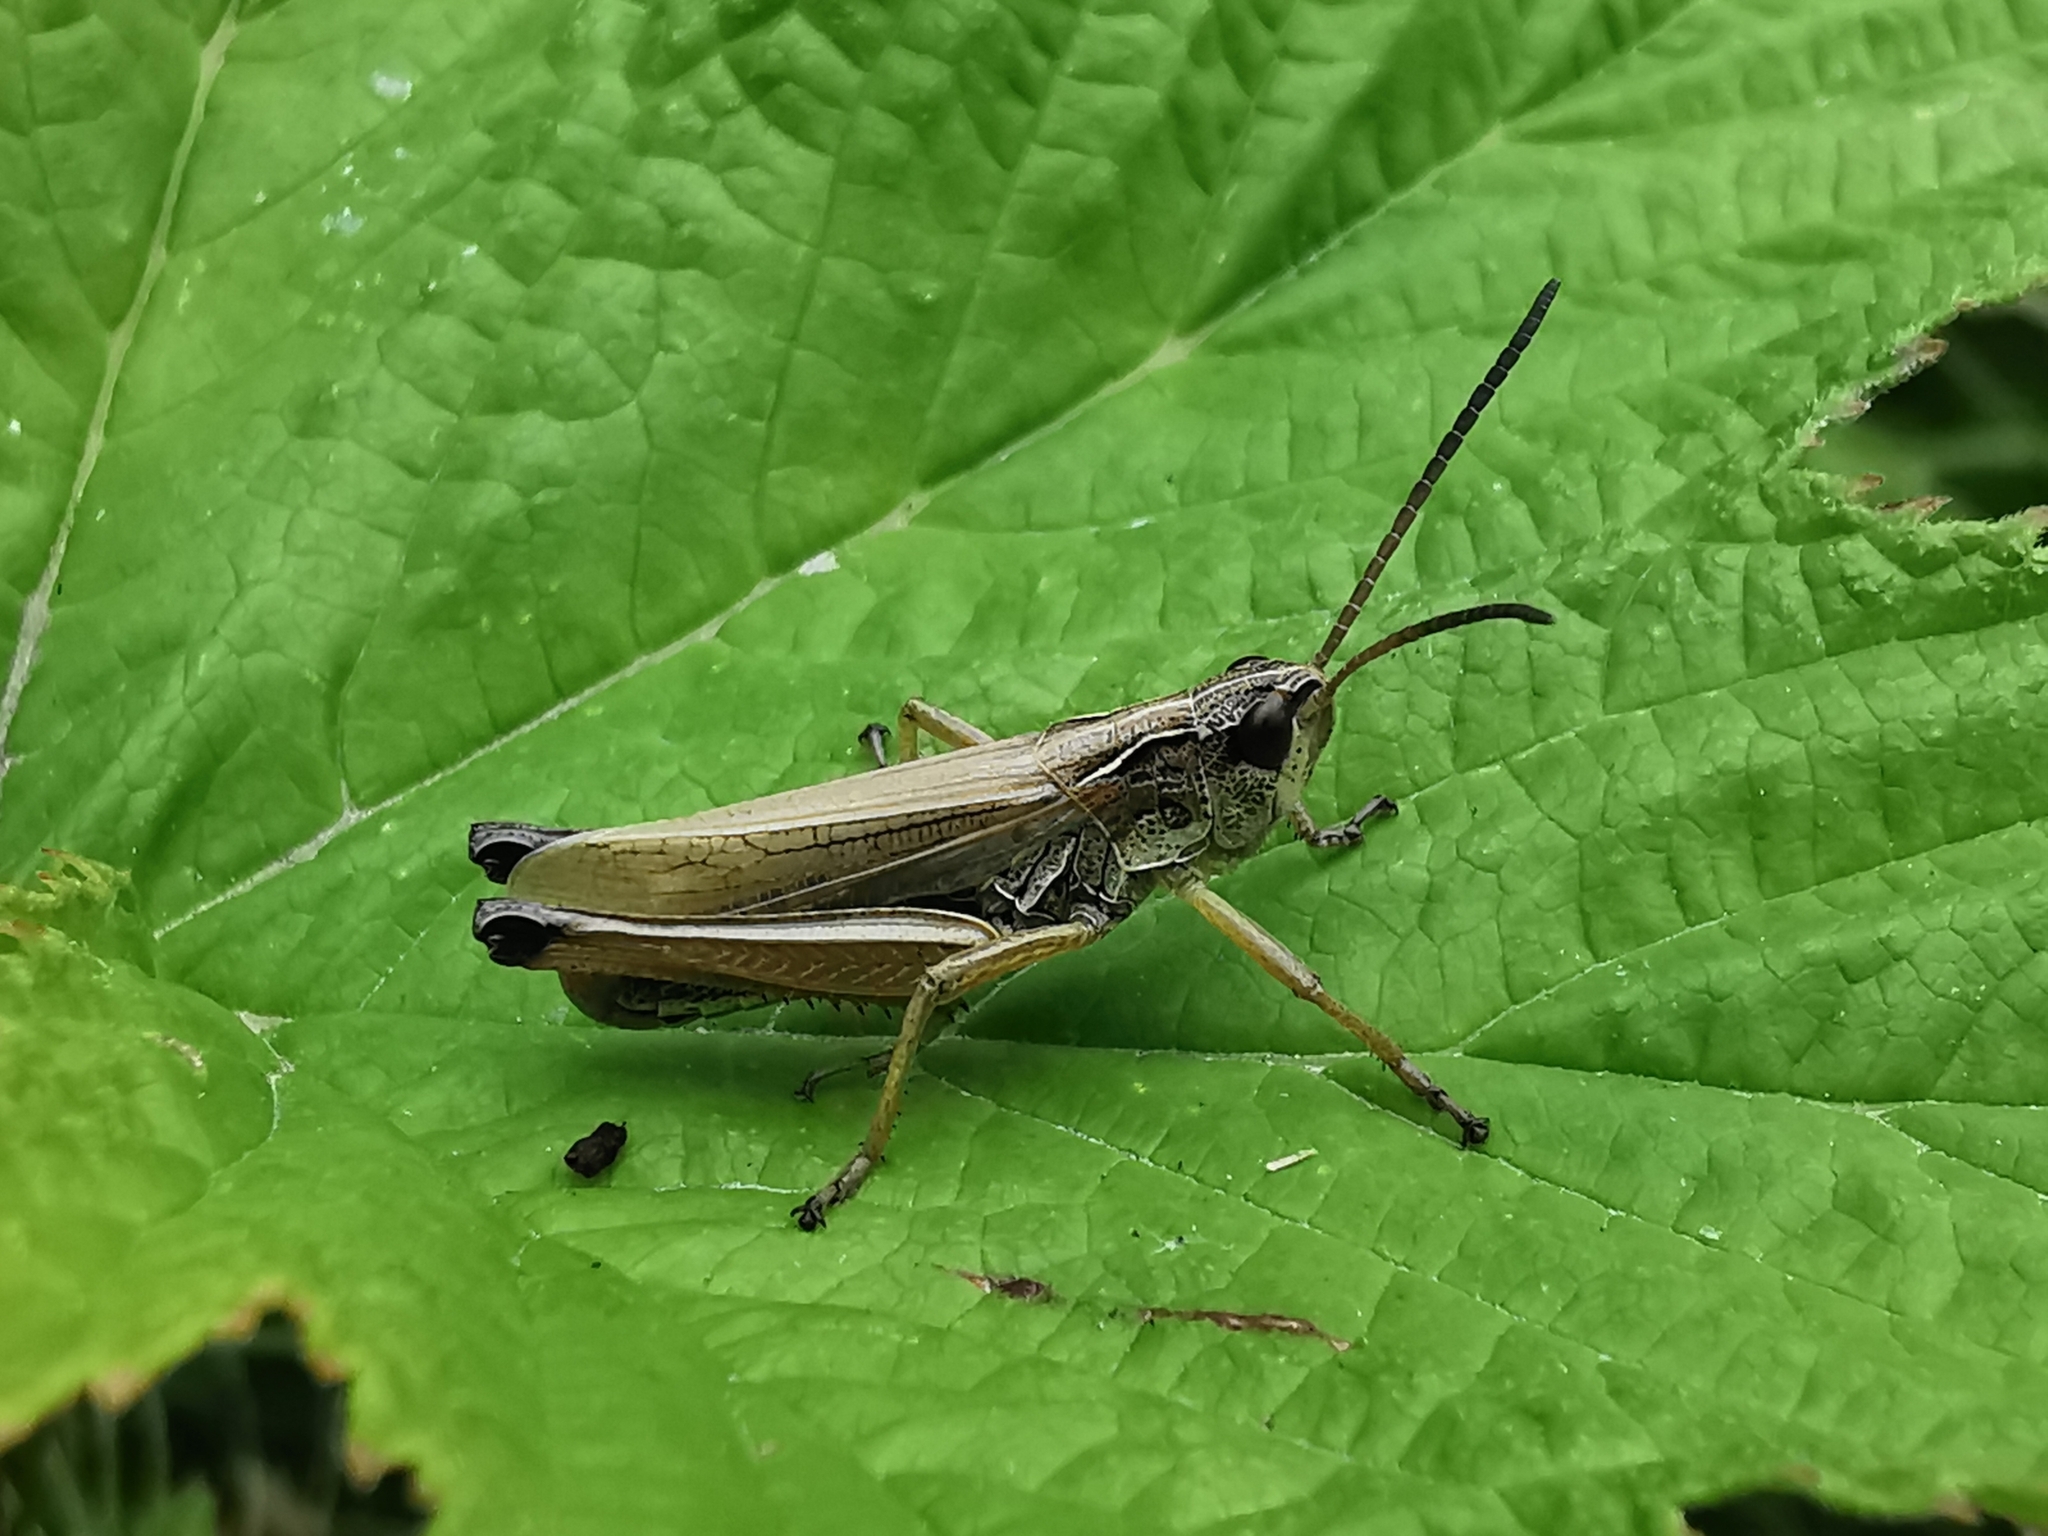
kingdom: Animalia
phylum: Arthropoda
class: Insecta
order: Orthoptera
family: Acrididae
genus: Pseudochorthippus
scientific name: Pseudochorthippus montanus
